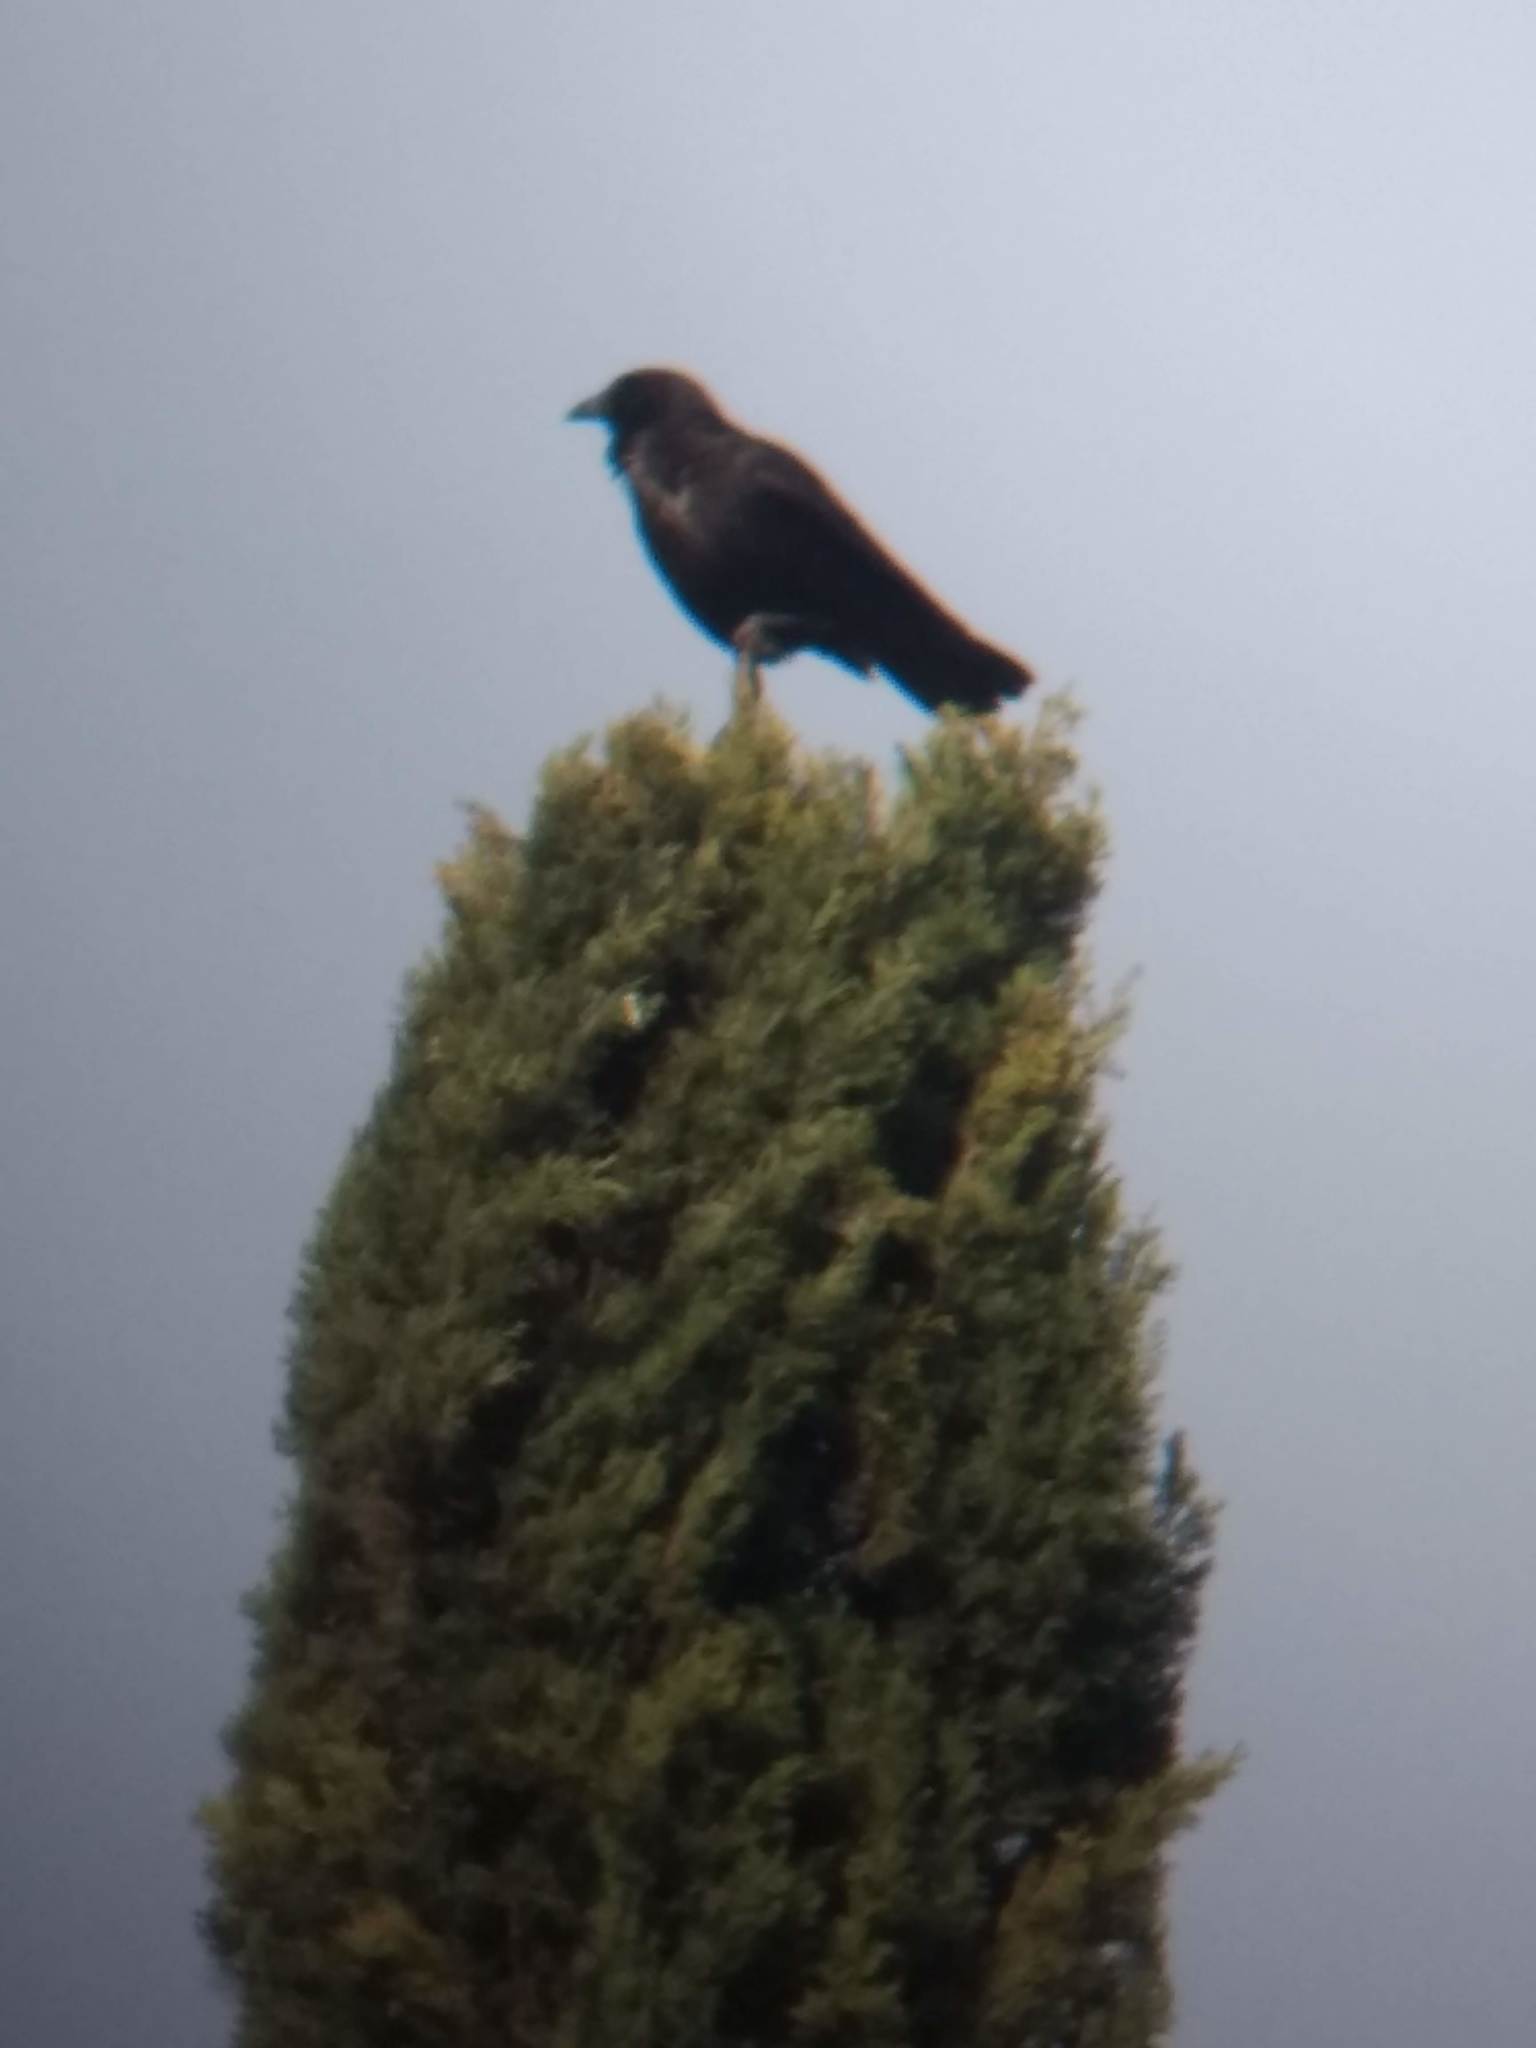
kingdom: Animalia
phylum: Chordata
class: Aves
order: Passeriformes
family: Corvidae
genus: Corvus
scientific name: Corvus brachyrhynchos
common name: American crow
